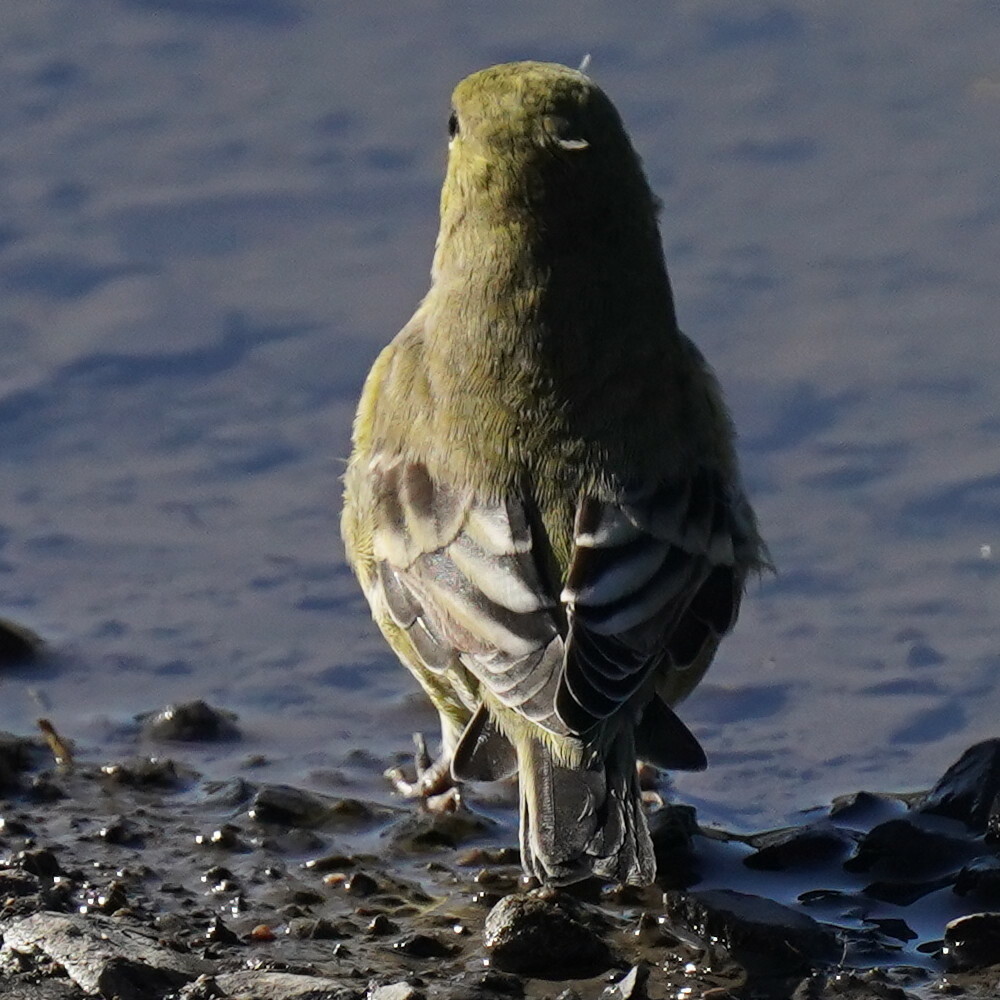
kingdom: Animalia
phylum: Chordata
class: Aves
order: Passeriformes
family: Fringillidae
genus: Spinus
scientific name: Spinus psaltria
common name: Lesser goldfinch
